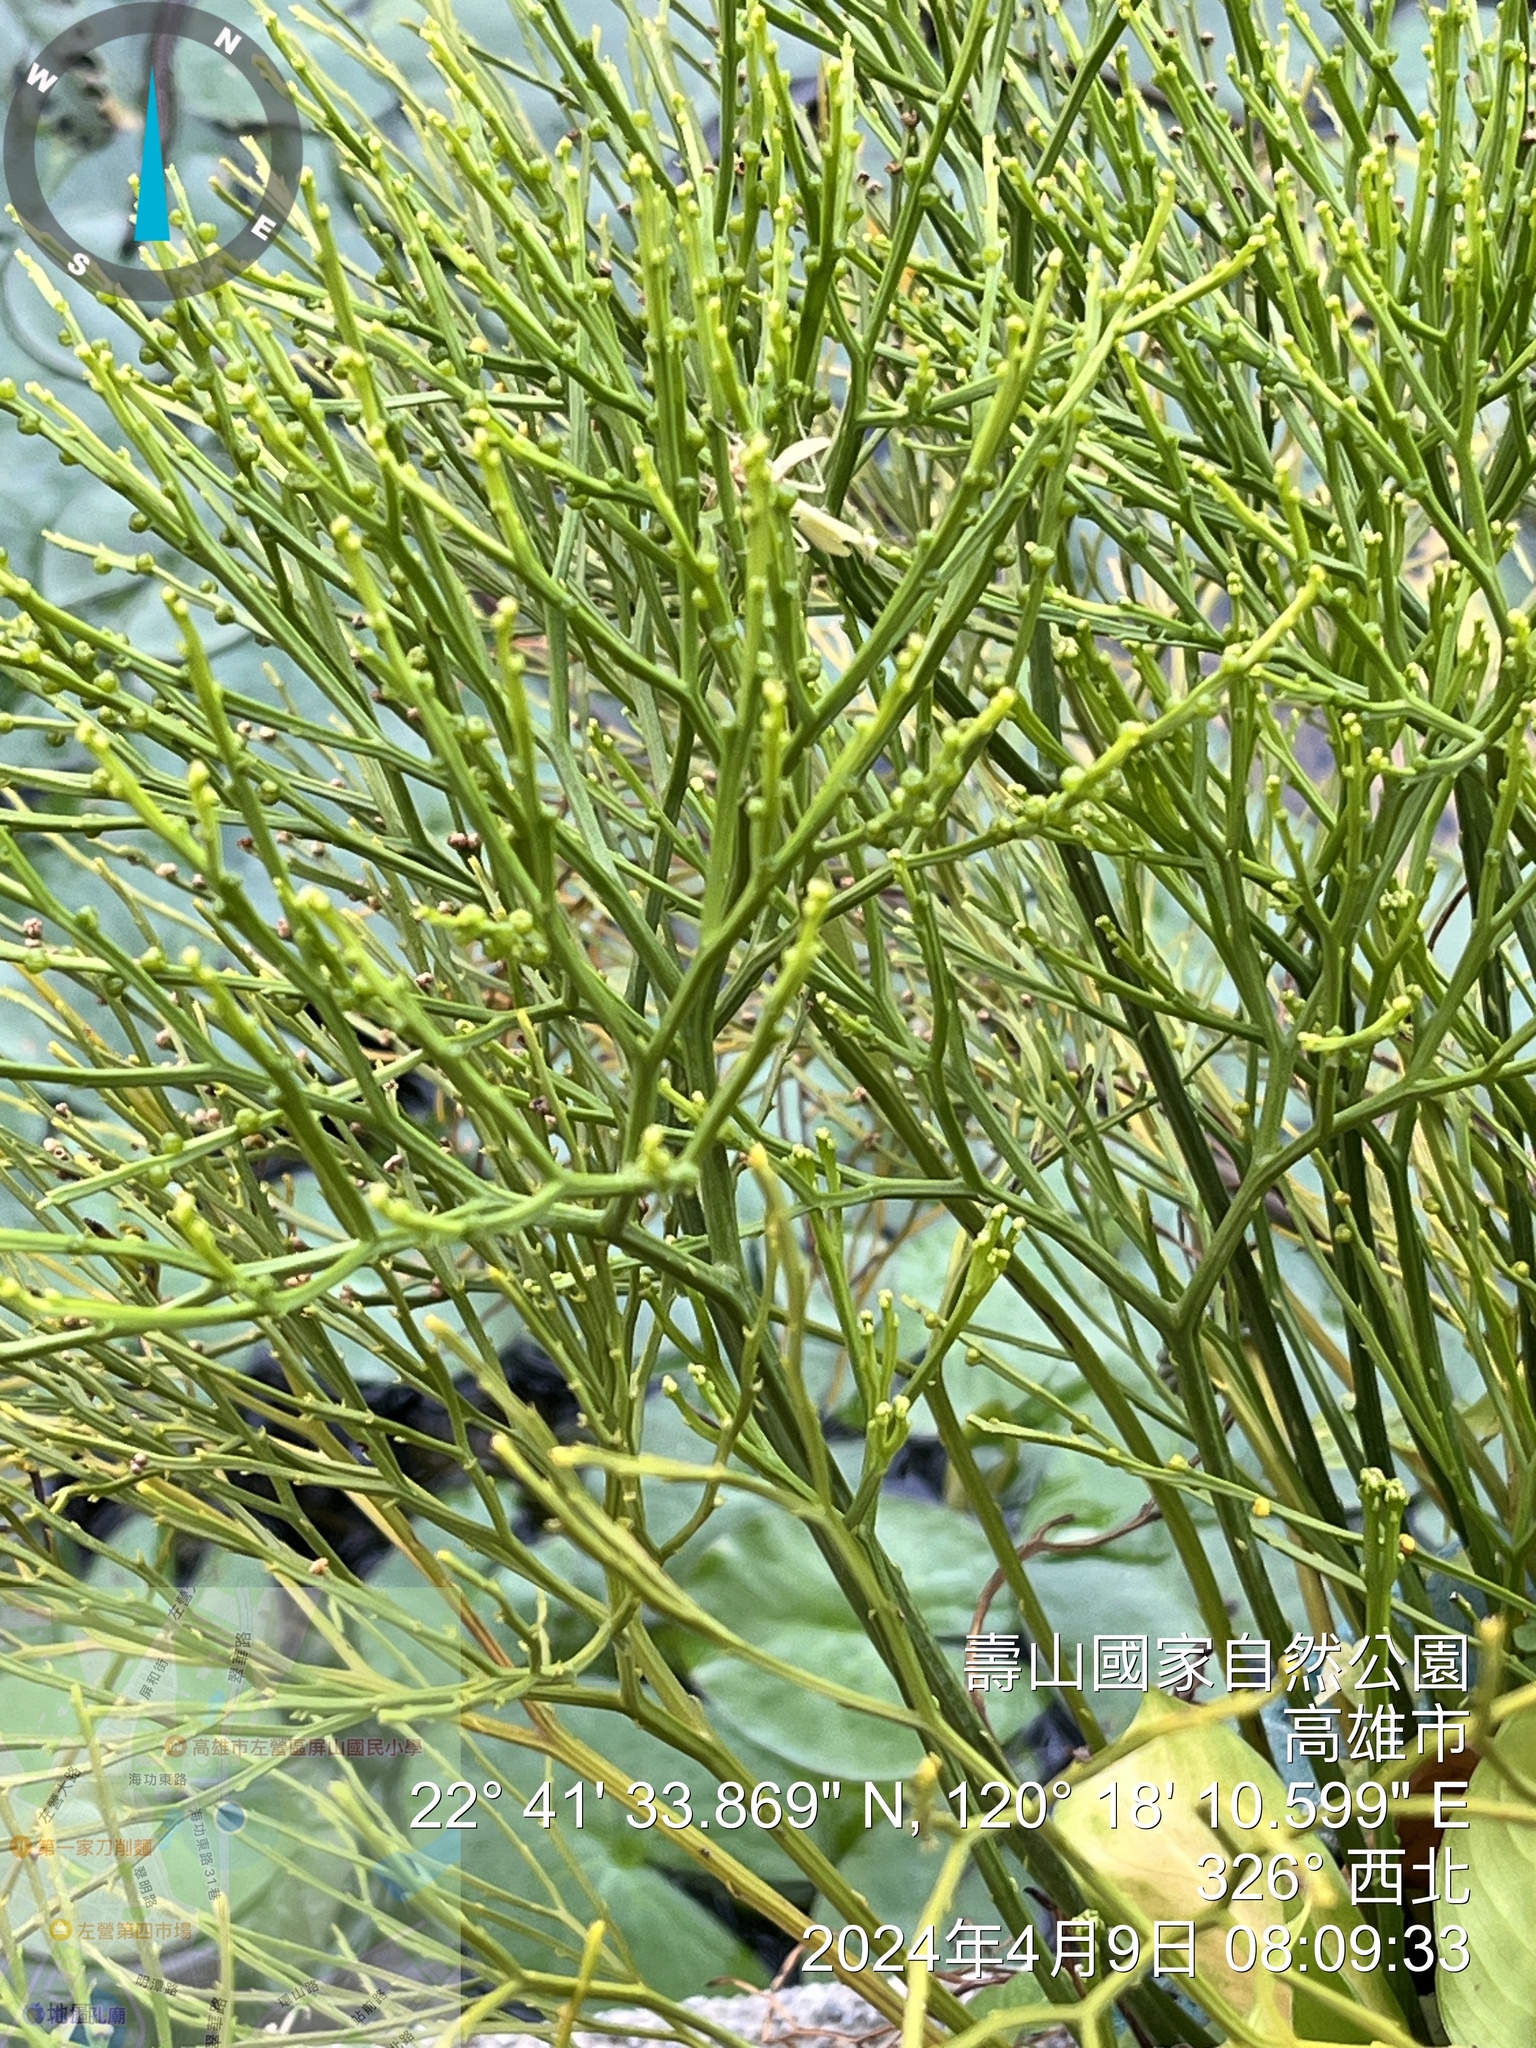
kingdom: Plantae
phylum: Tracheophyta
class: Polypodiopsida
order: Psilotales
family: Psilotaceae
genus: Psilotum
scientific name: Psilotum nudum
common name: Skeleton fork fern
